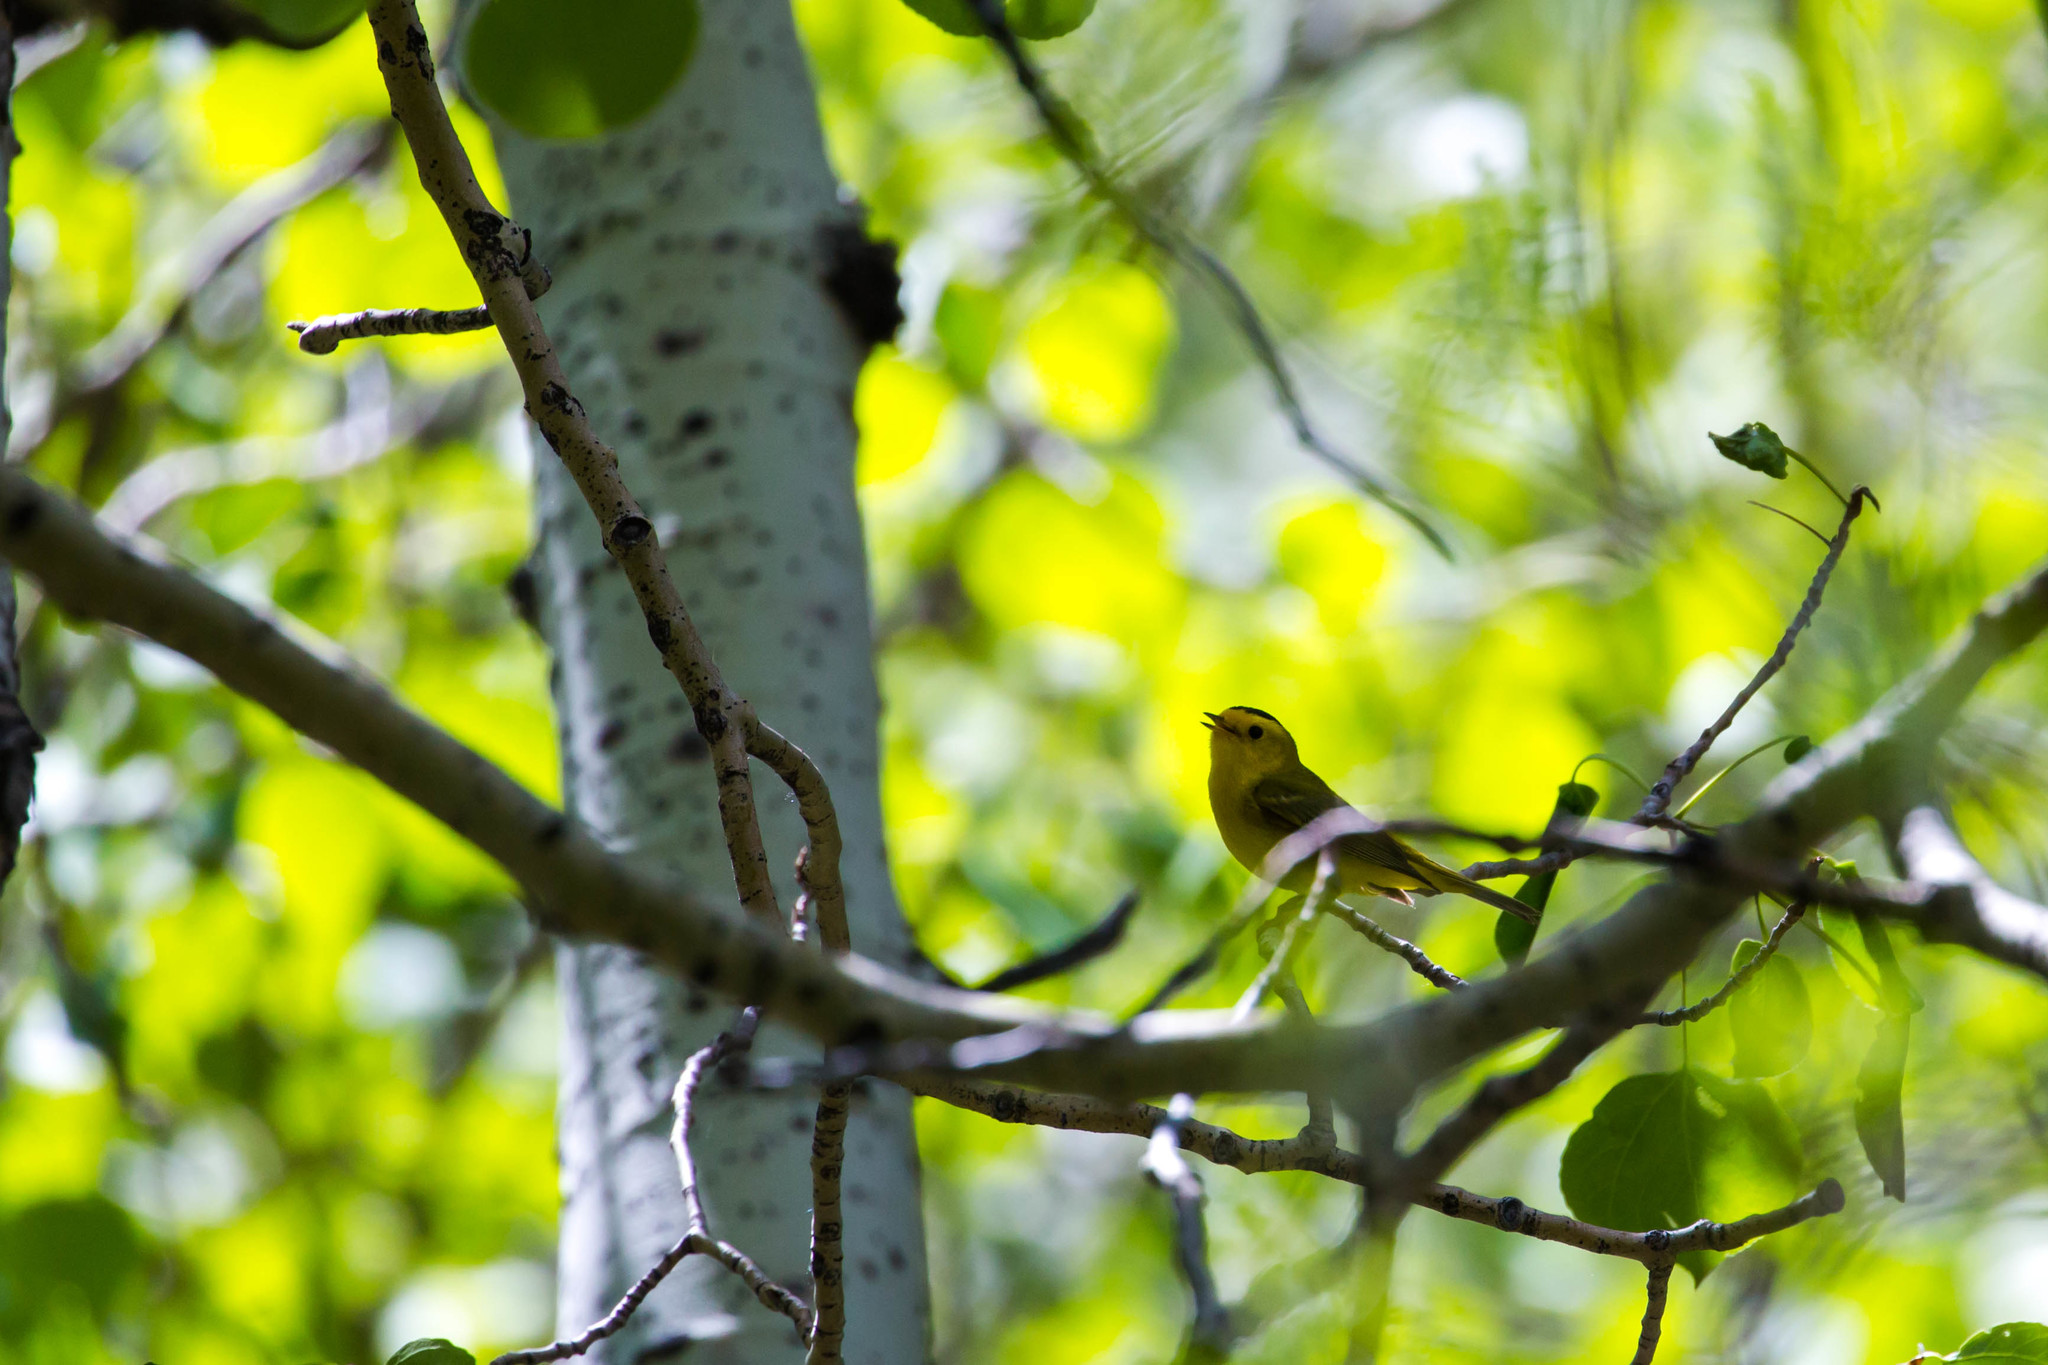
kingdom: Animalia
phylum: Chordata
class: Aves
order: Passeriformes
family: Parulidae
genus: Cardellina
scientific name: Cardellina pusilla
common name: Wilson's warbler
